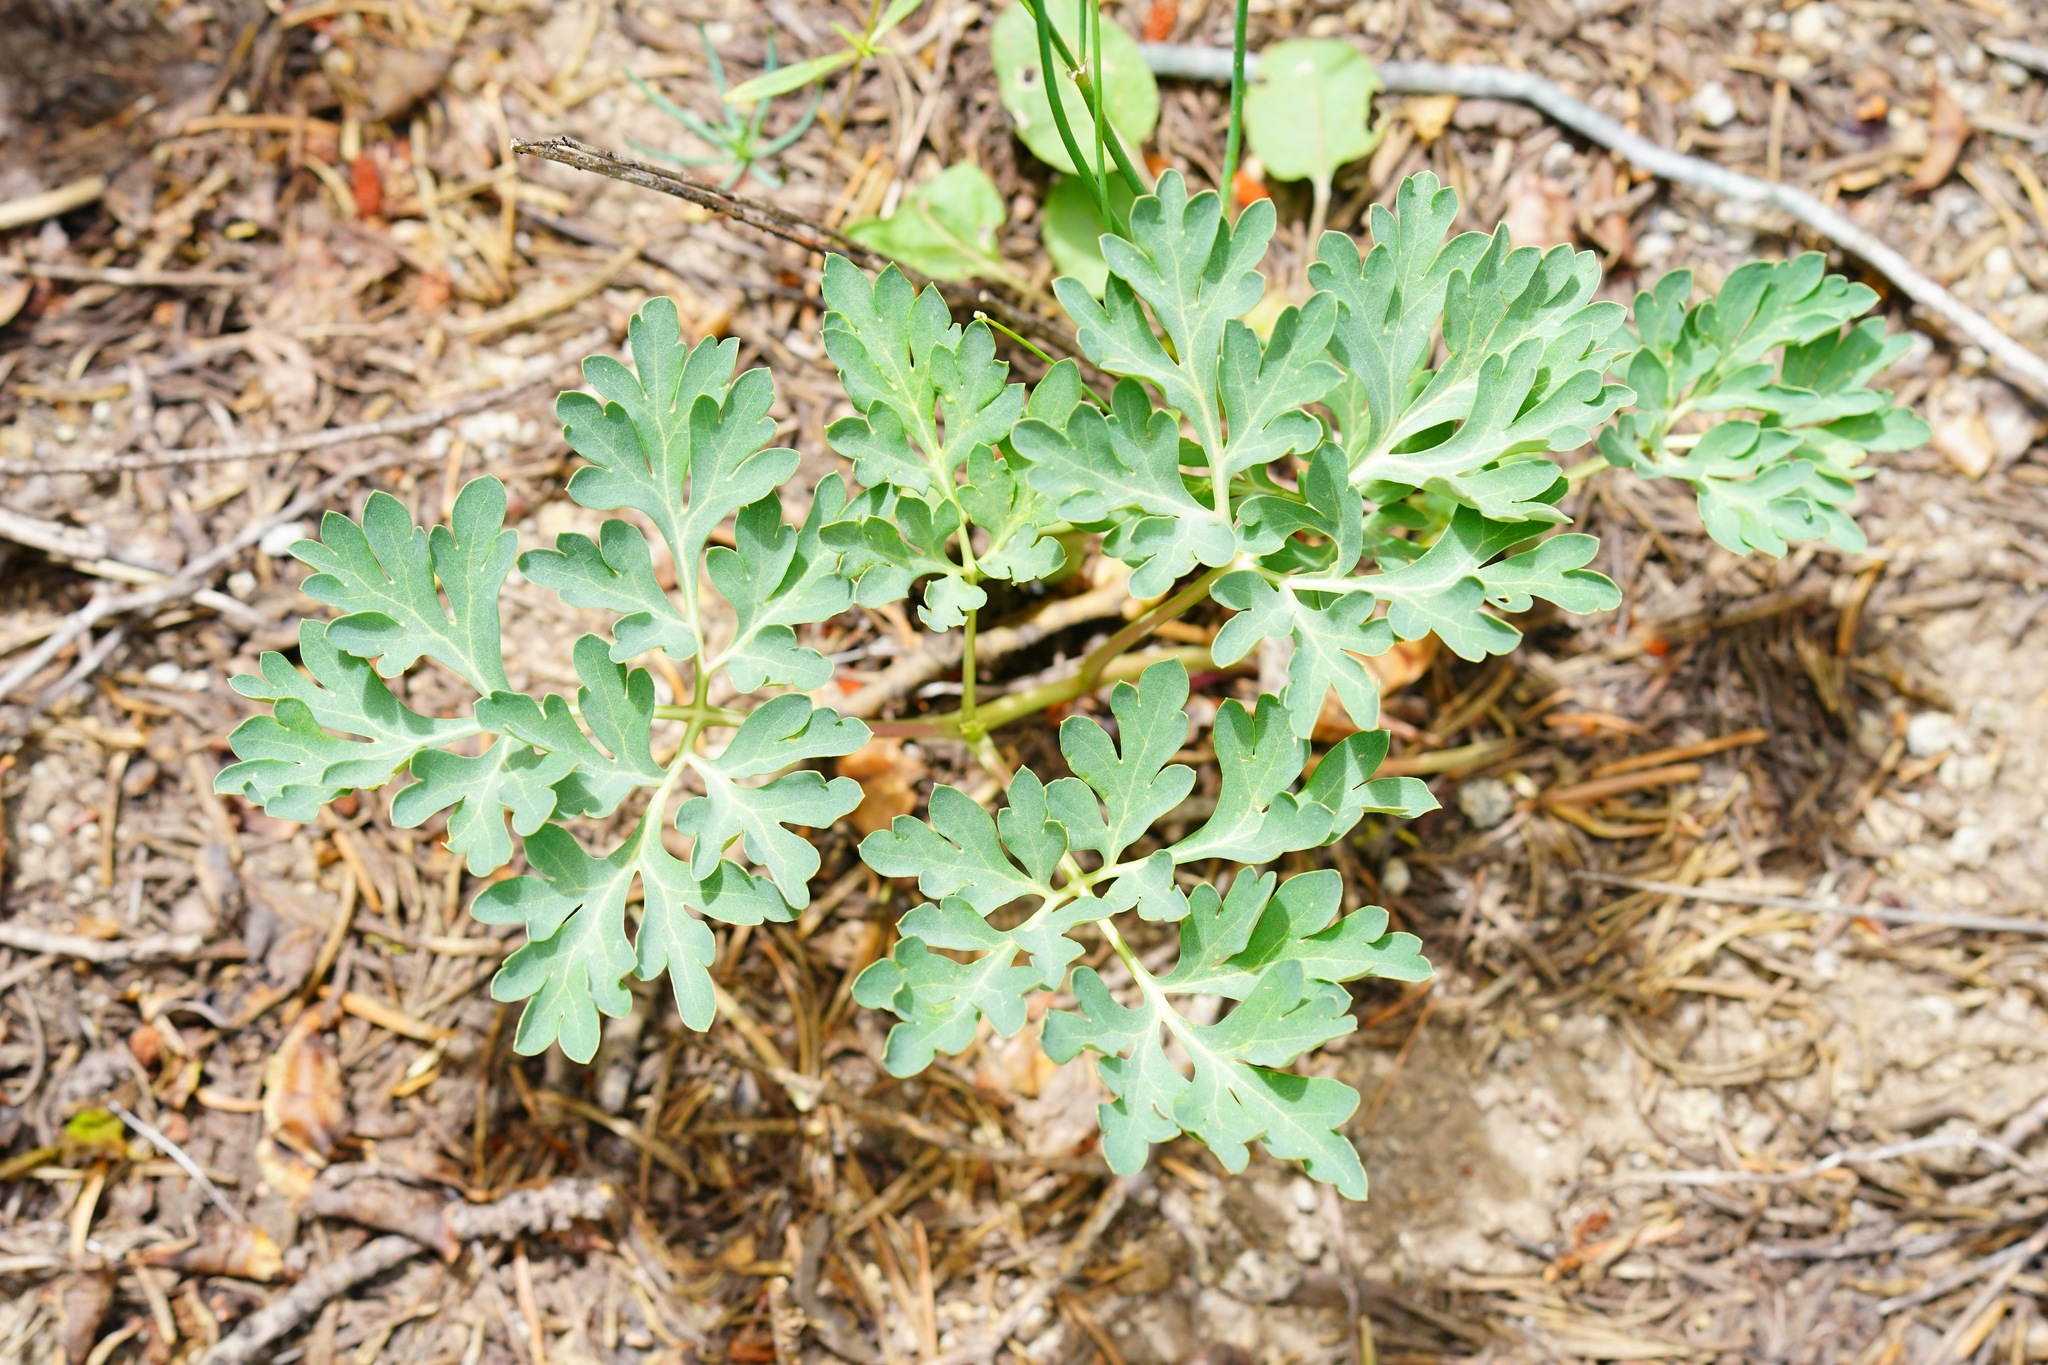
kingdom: Plantae
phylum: Tracheophyta
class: Magnoliopsida
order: Saxifragales
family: Paeoniaceae
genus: Paeonia
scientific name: Paeonia brownii
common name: Brown's peony
